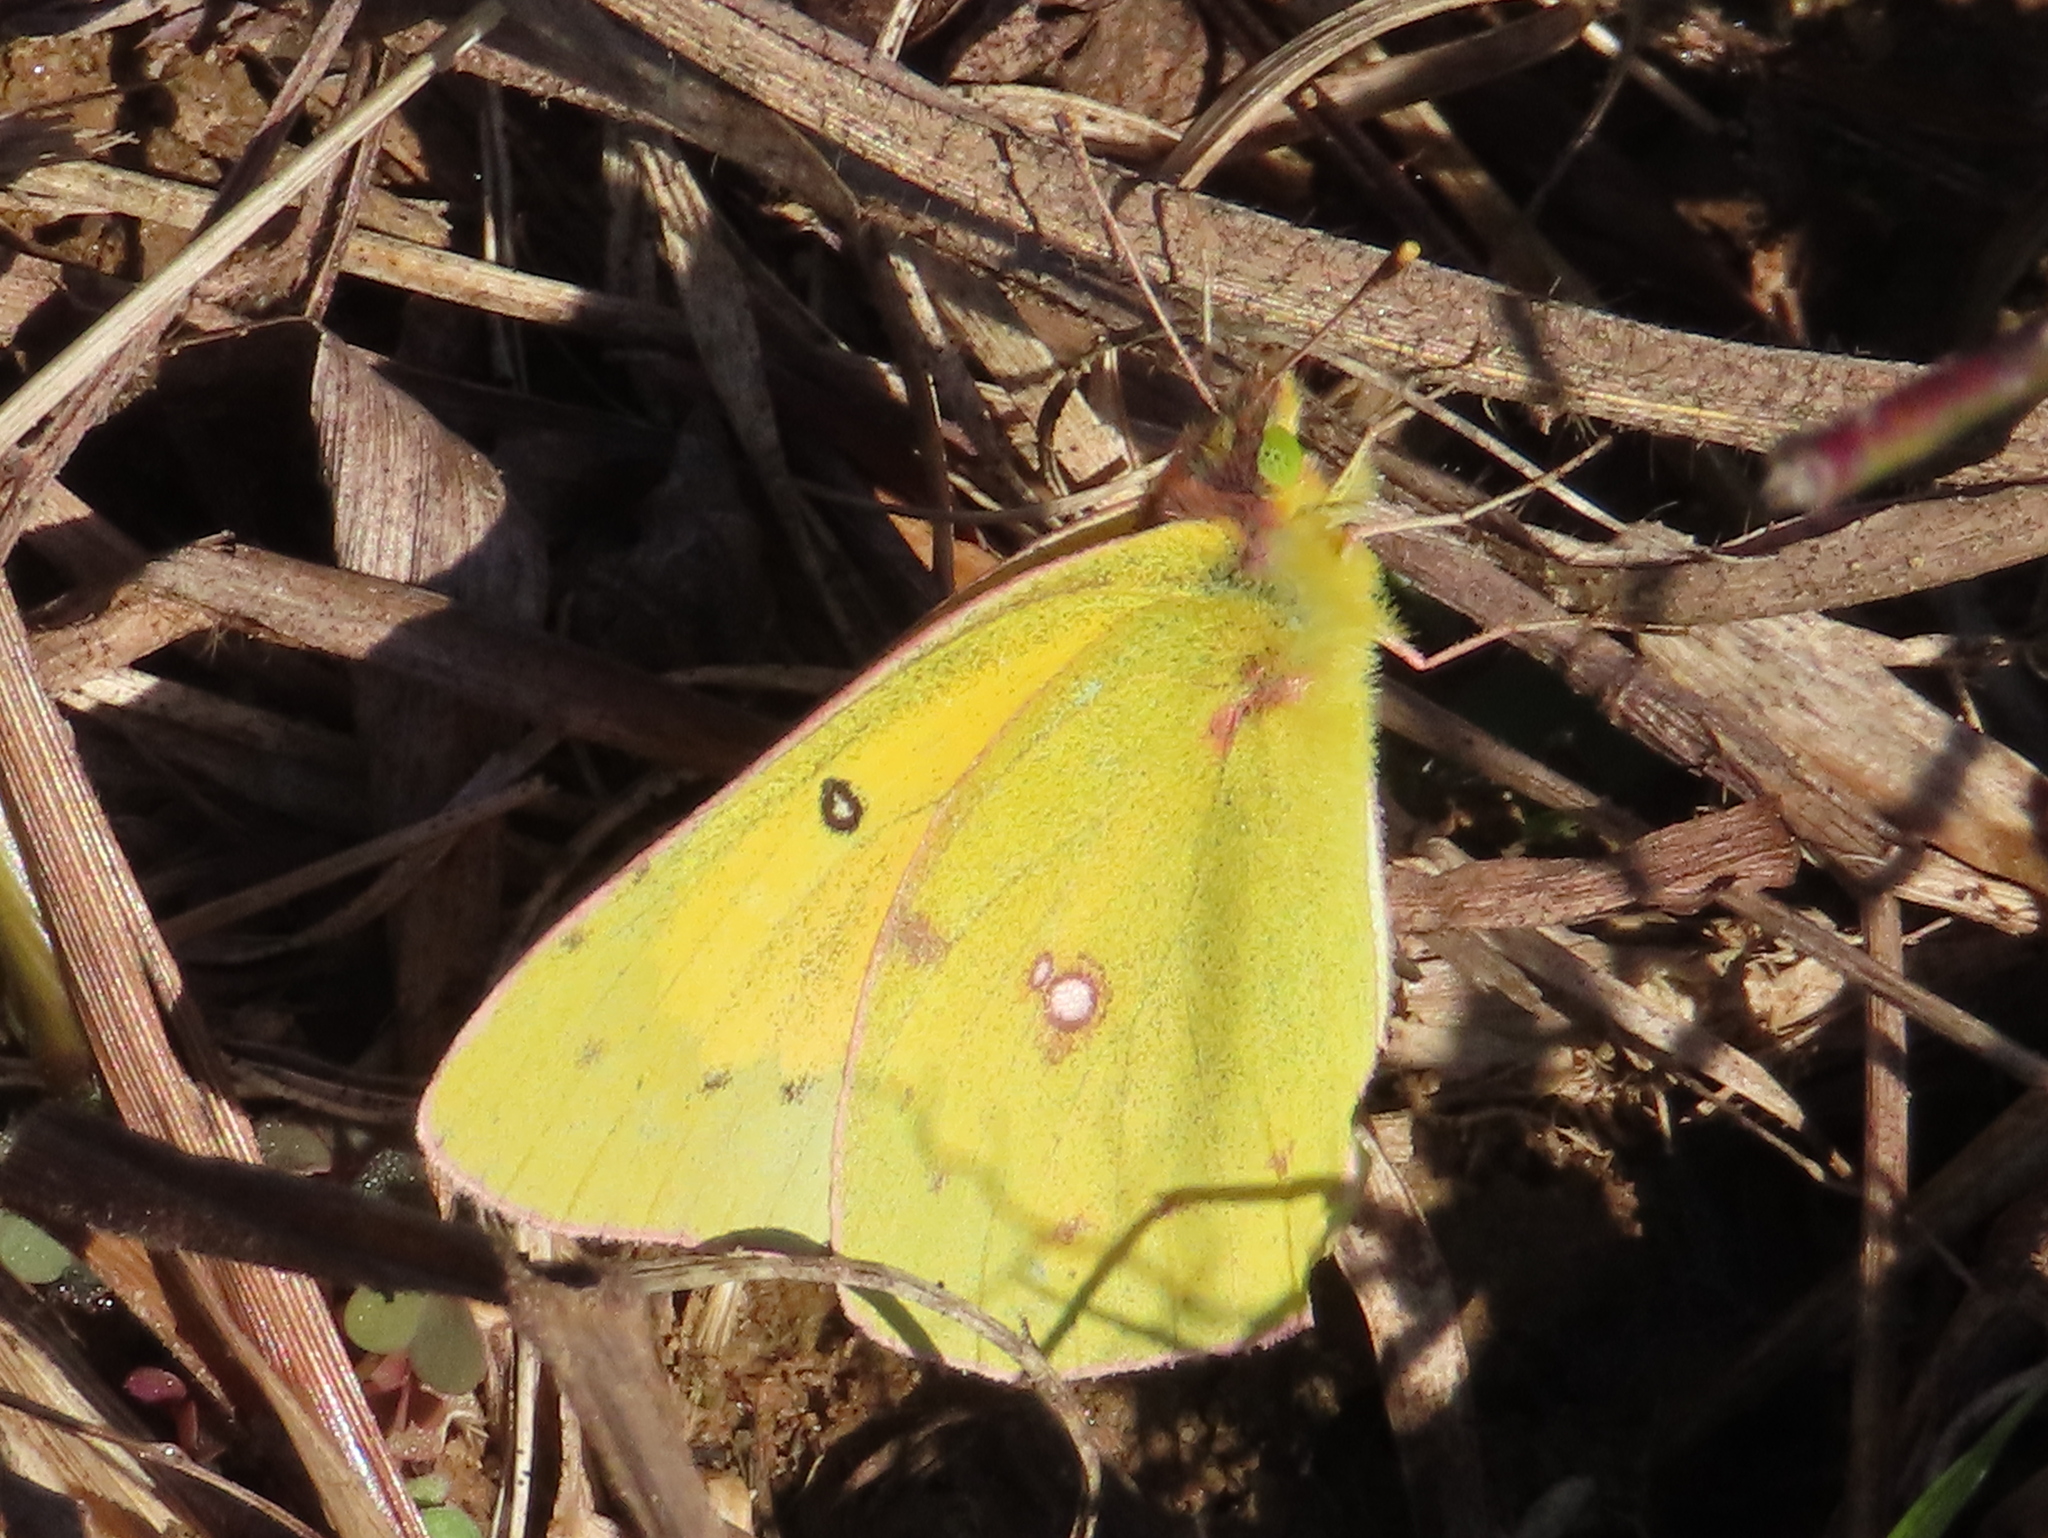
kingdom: Animalia
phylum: Arthropoda
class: Insecta
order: Lepidoptera
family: Pieridae
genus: Colias
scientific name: Colias eurytheme
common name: Alfalfa butterfly
